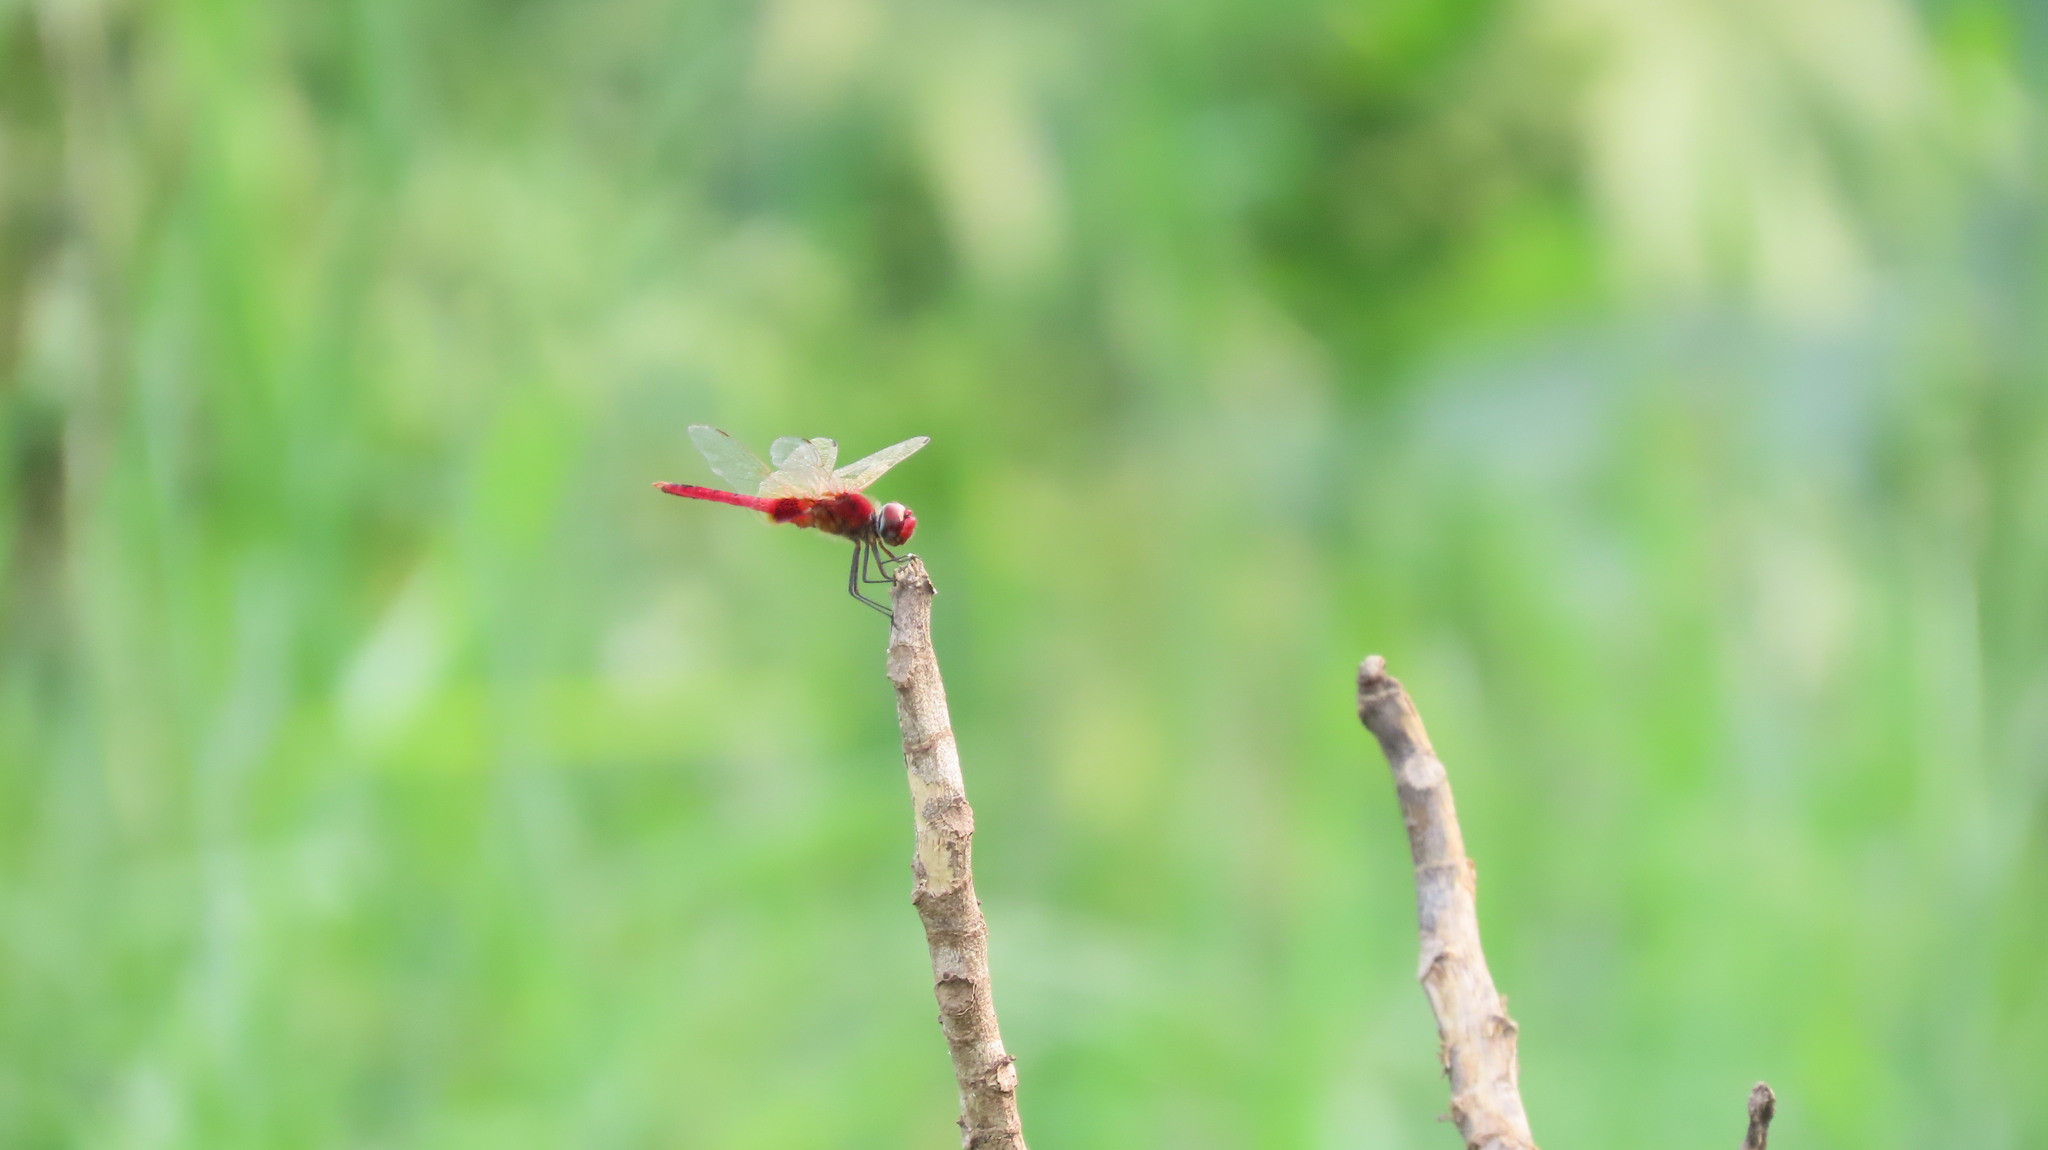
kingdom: Animalia
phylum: Arthropoda
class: Insecta
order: Odonata
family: Libellulidae
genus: Urothemis
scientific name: Urothemis signata
